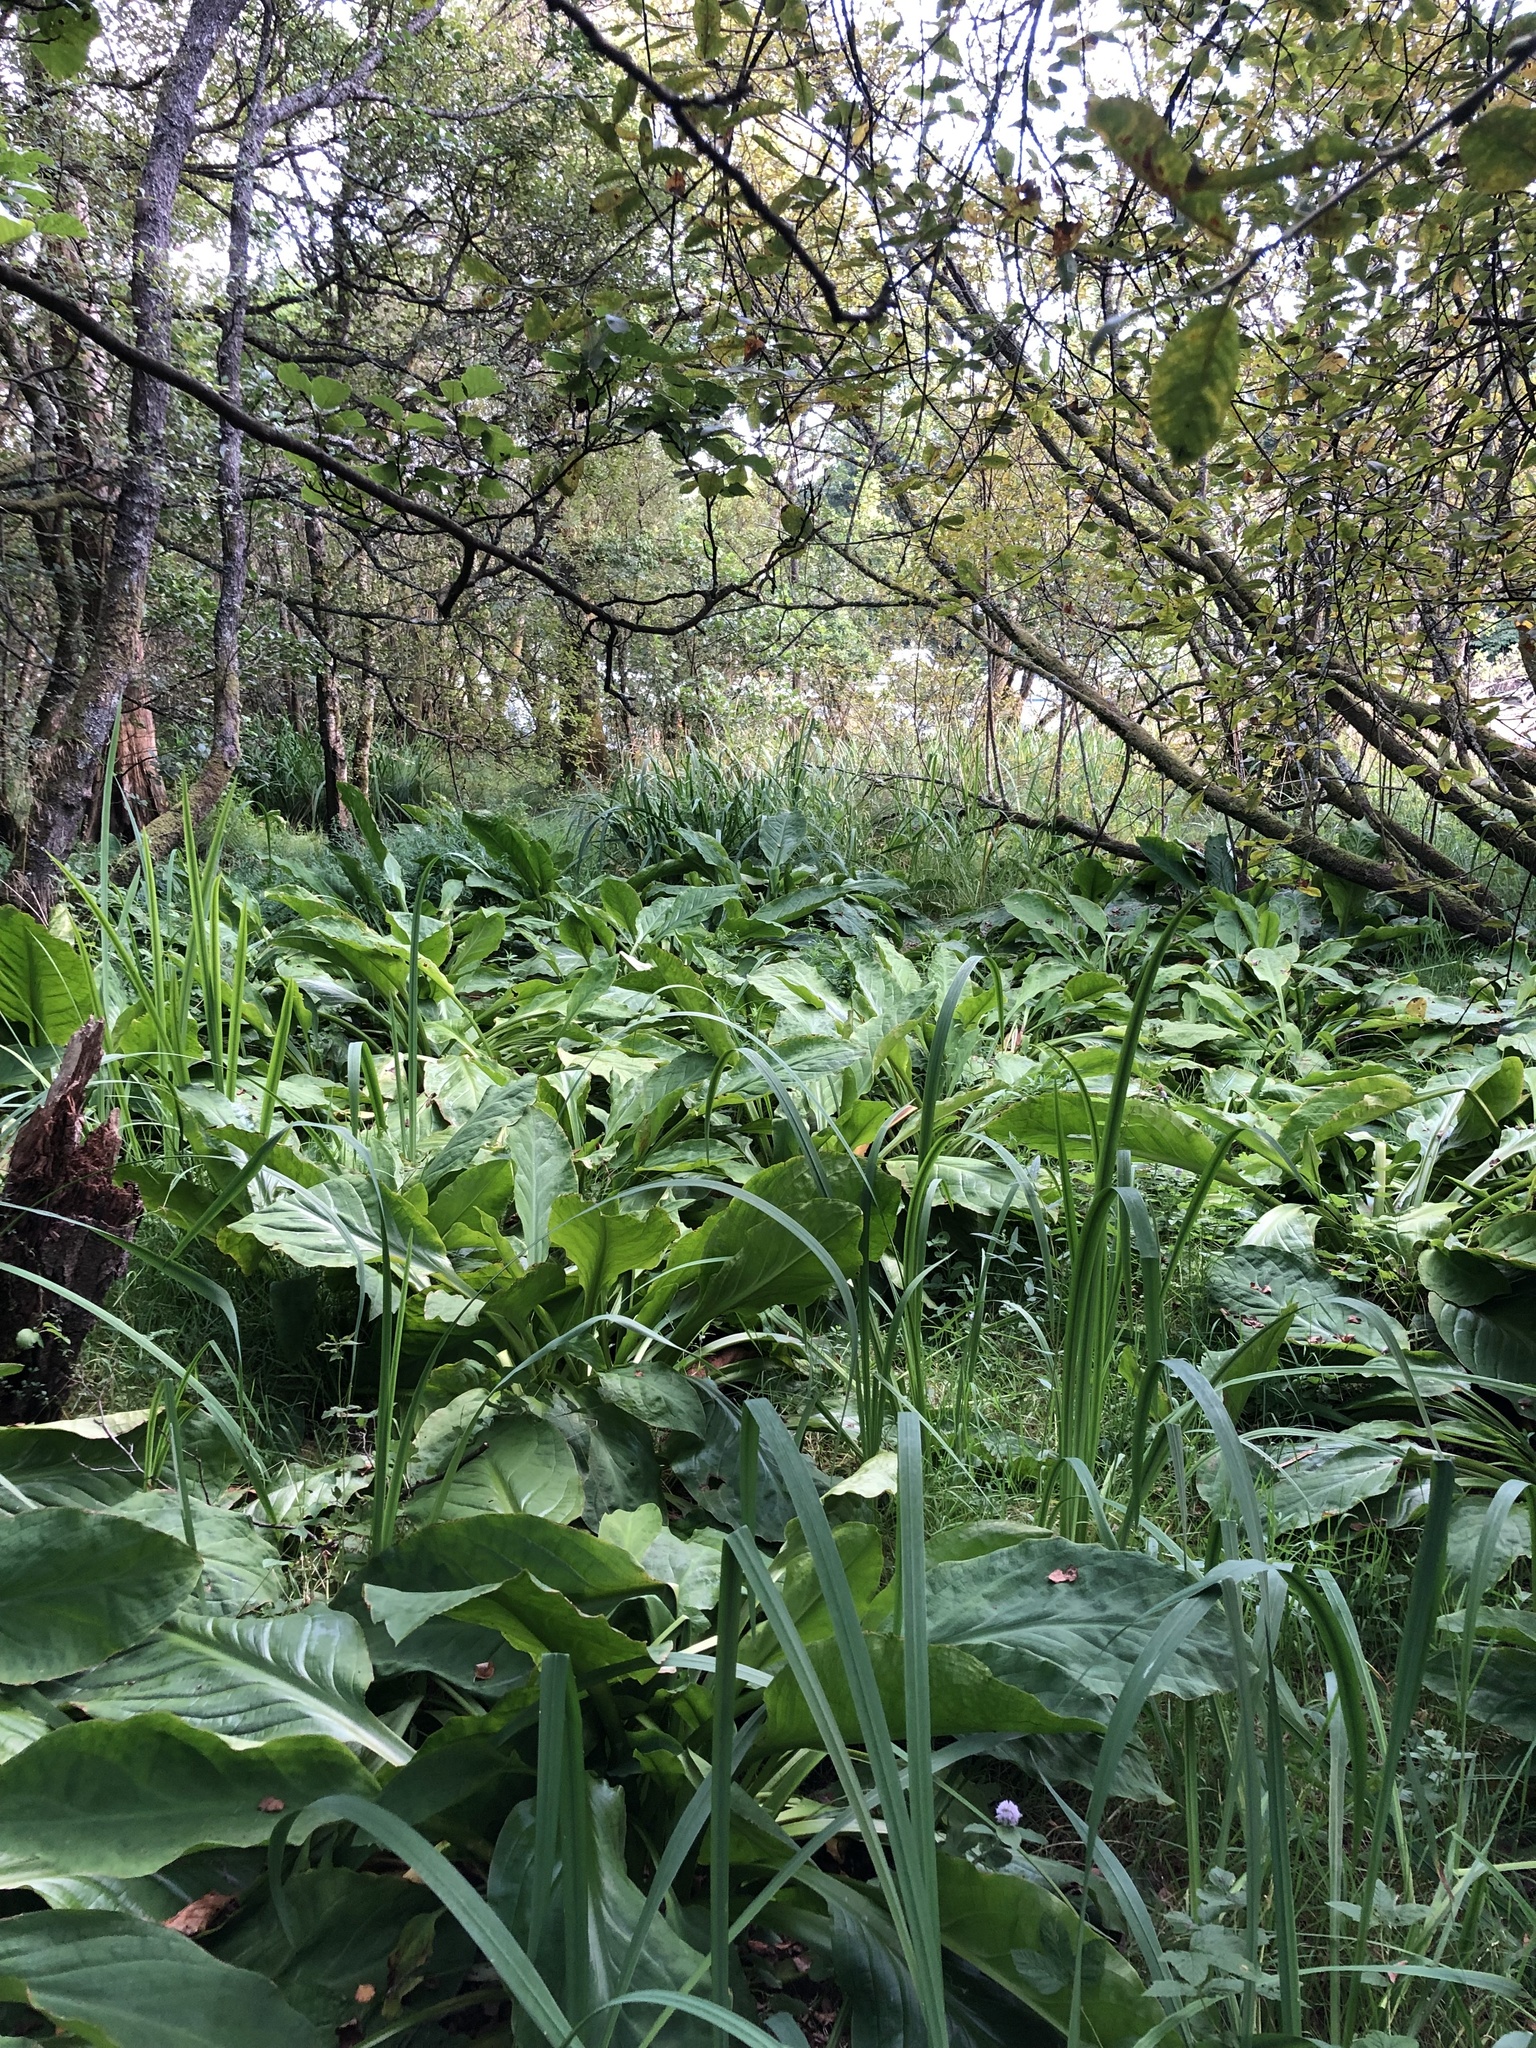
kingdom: Plantae
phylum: Tracheophyta
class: Liliopsida
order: Alismatales
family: Araceae
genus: Lysichiton
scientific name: Lysichiton americanus
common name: American skunk cabbage
